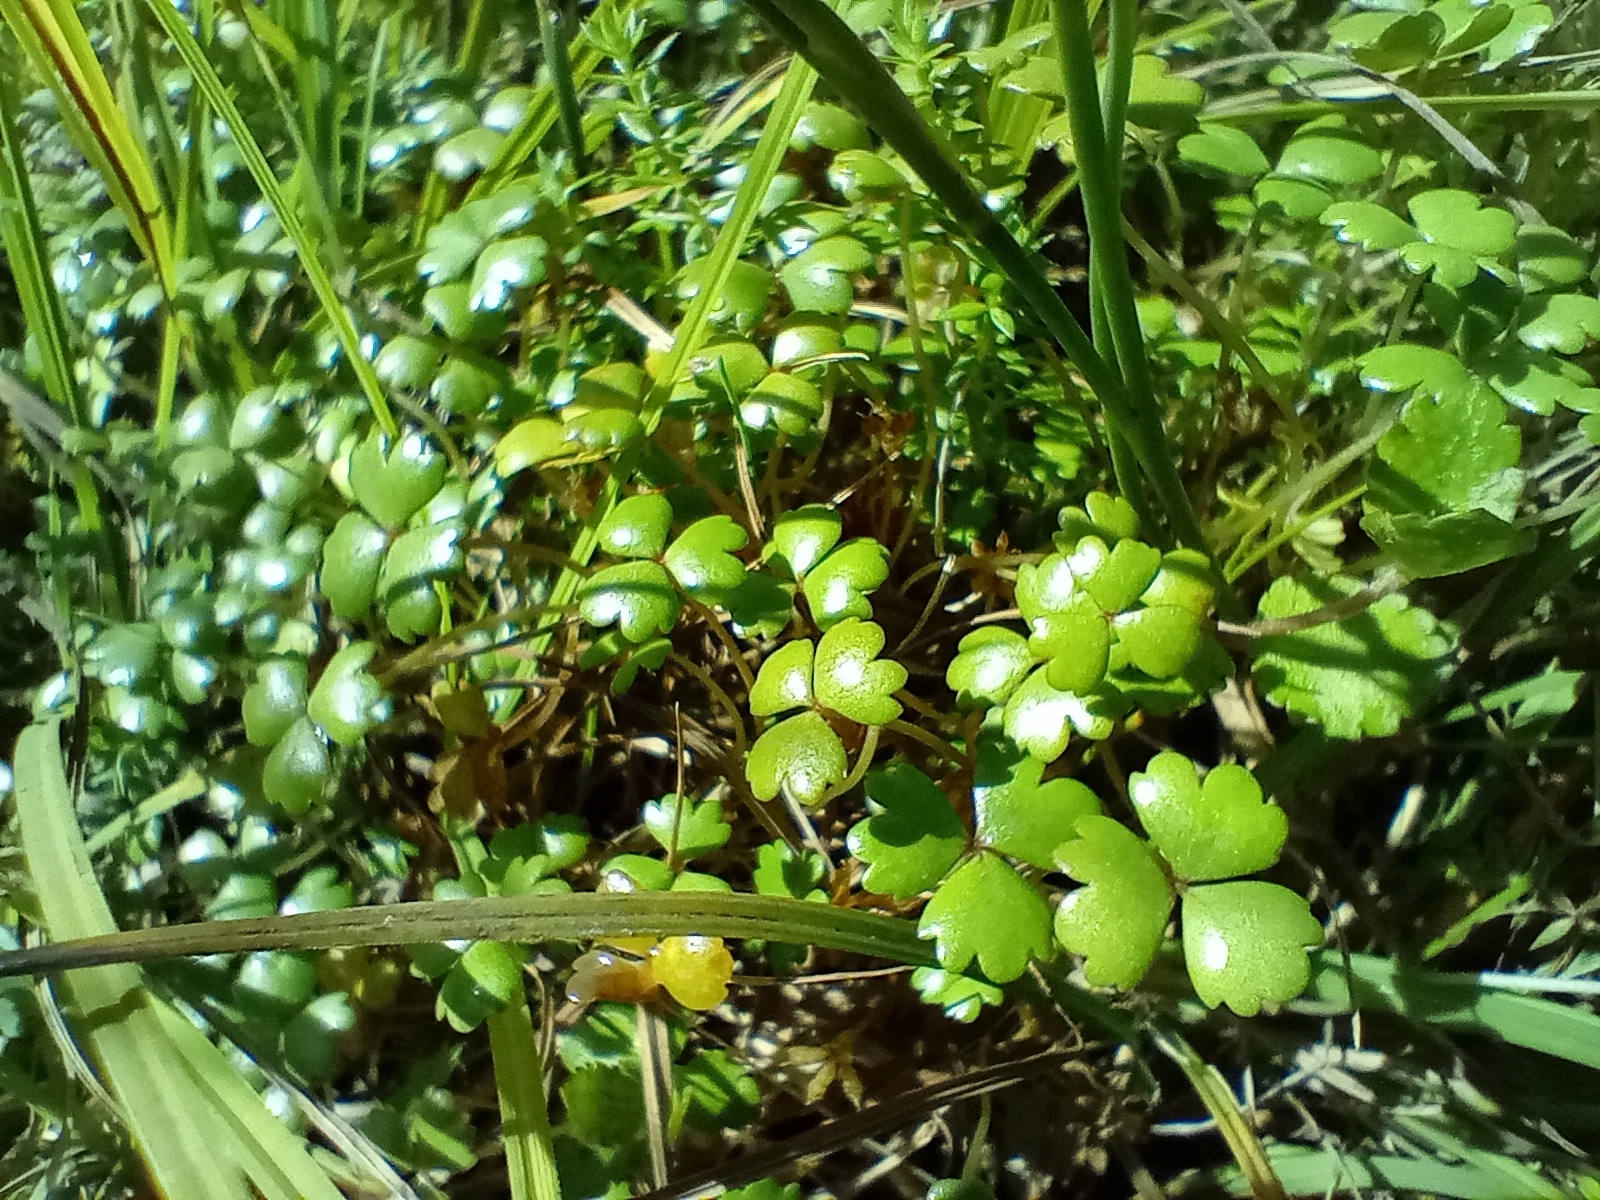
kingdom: Plantae
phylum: Tracheophyta
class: Magnoliopsida
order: Apiales
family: Araliaceae
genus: Hydrocotyle
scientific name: Hydrocotyle sulcata
